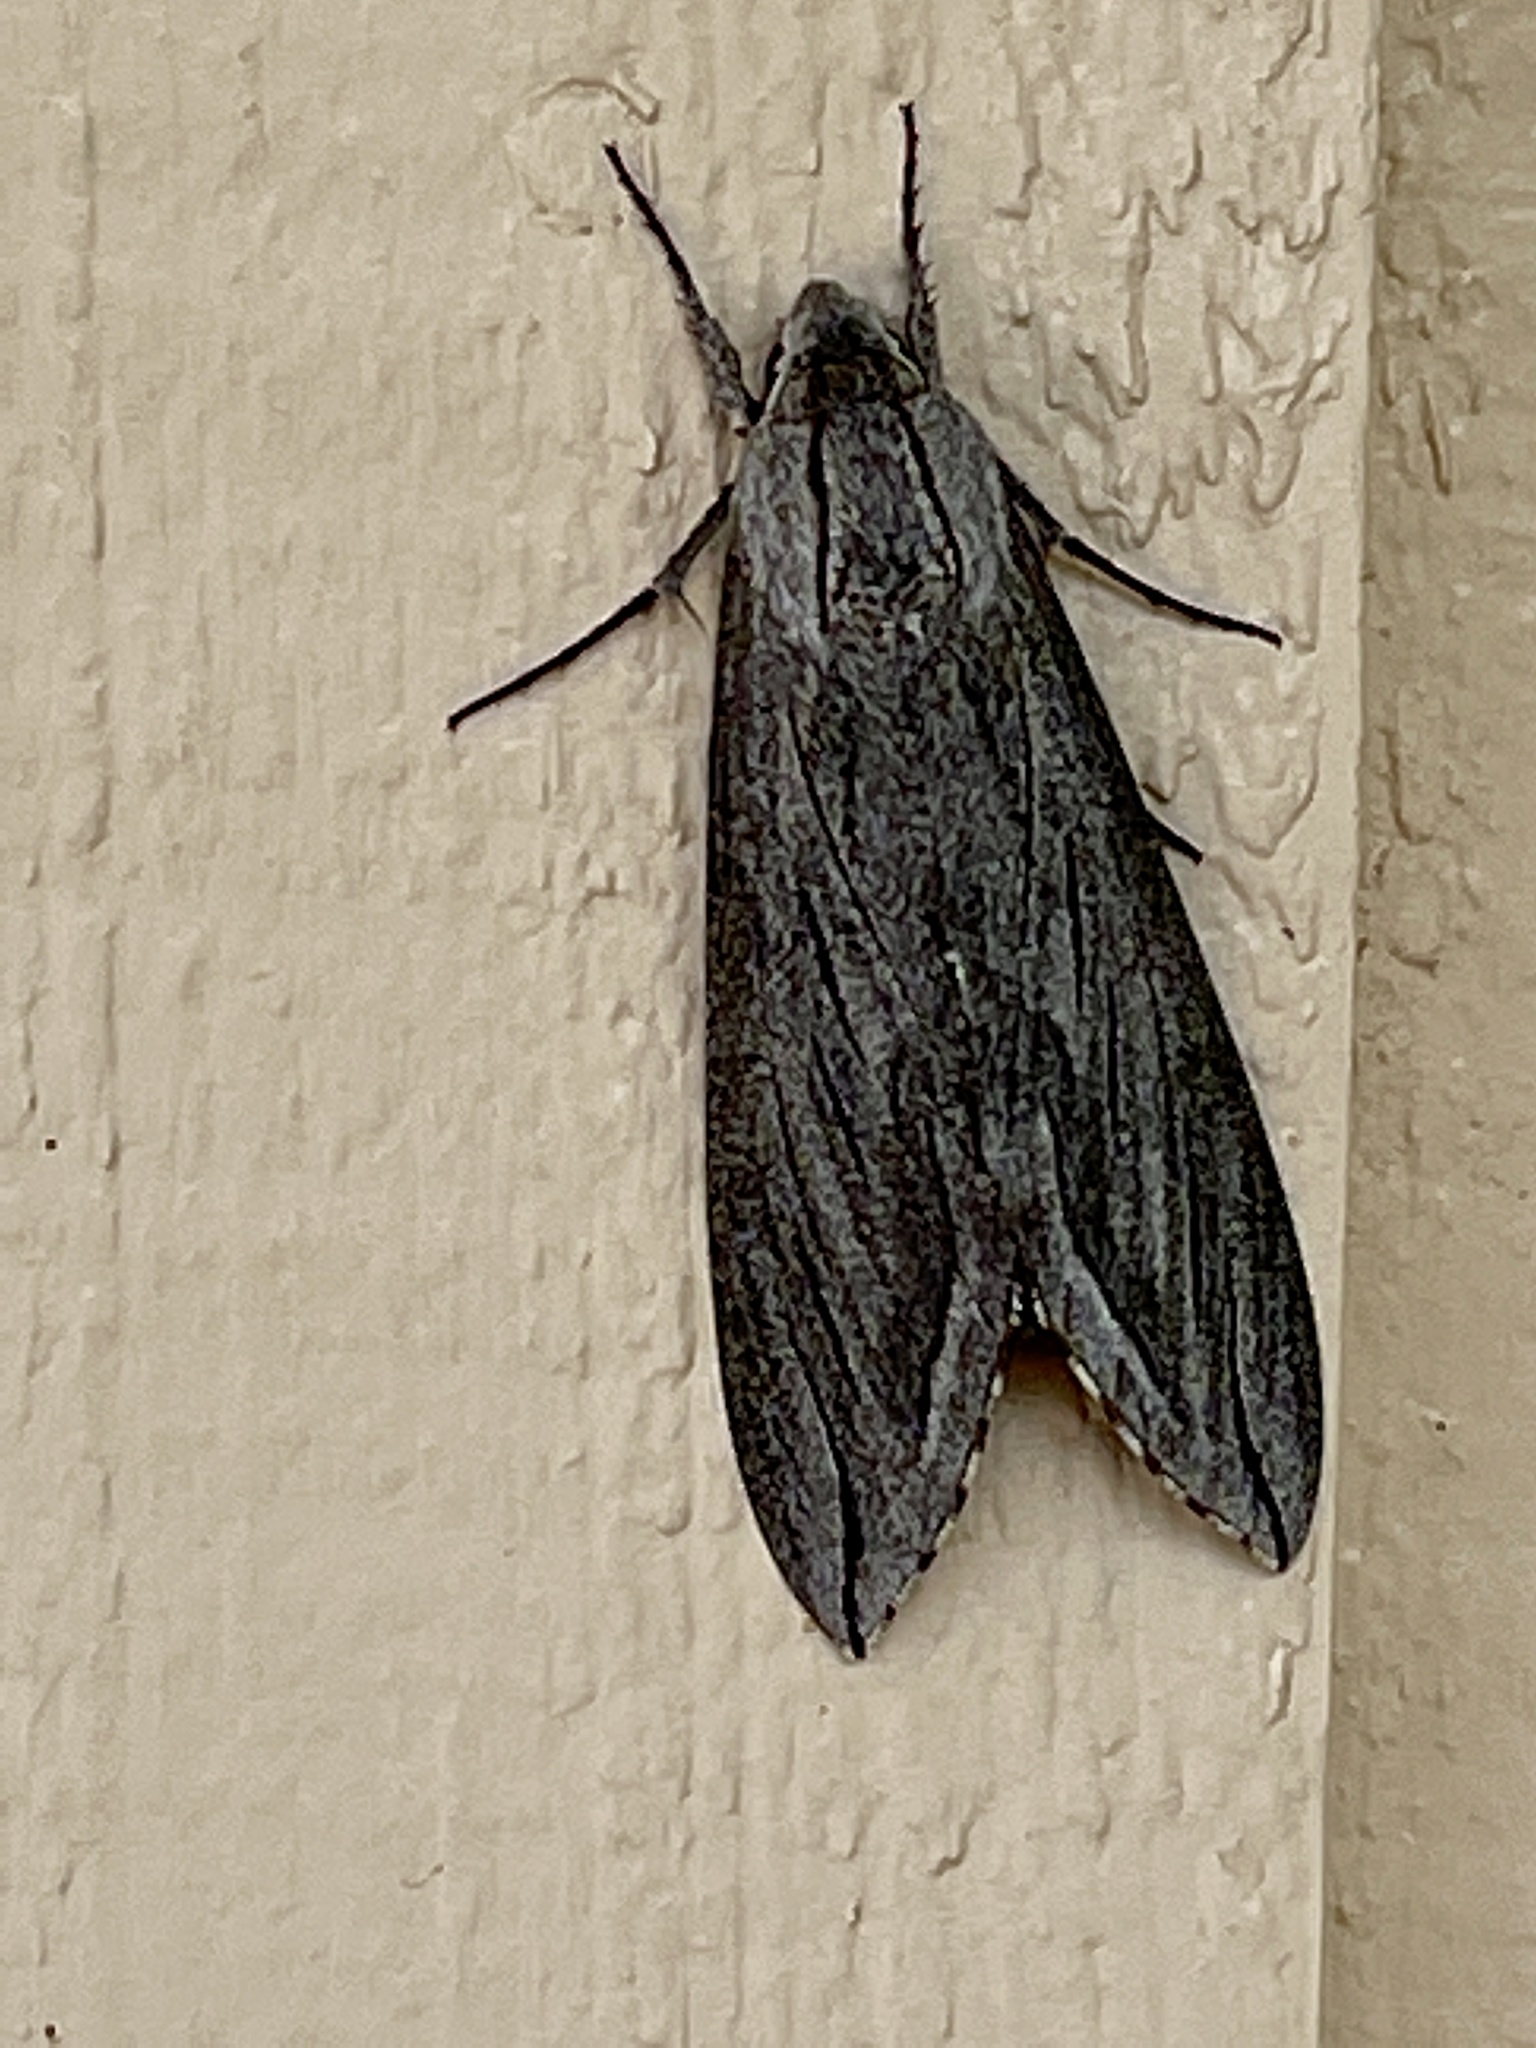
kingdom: Animalia
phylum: Arthropoda
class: Insecta
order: Lepidoptera
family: Sphingidae
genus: Sphinx
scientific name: Sphinx chersis
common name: Great ash sphinx
